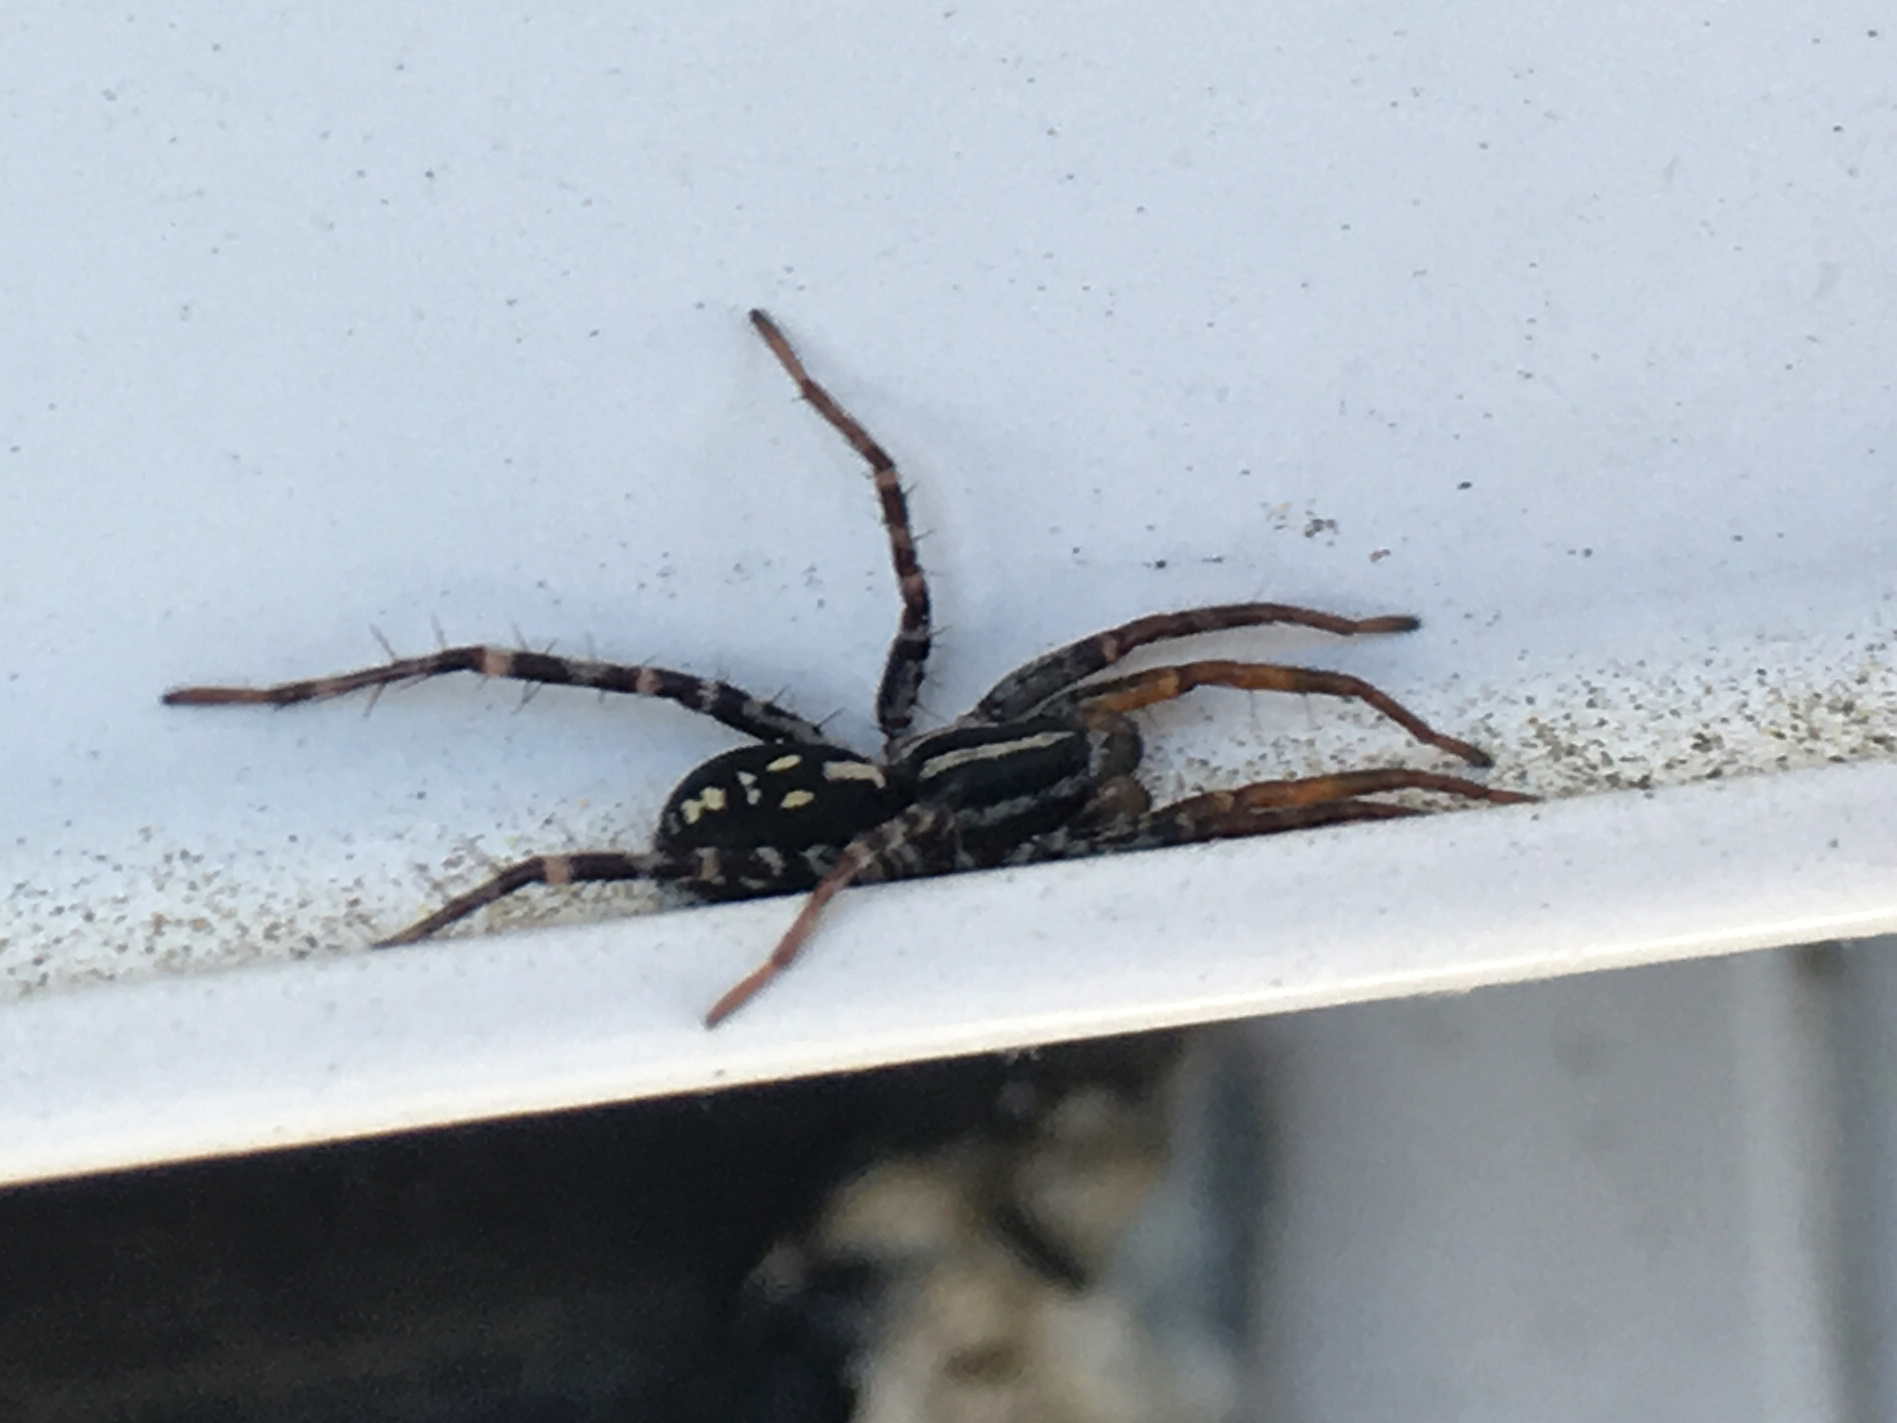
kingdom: Animalia
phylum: Arthropoda
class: Arachnida
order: Araneae
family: Corinnidae
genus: Nyssus
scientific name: Nyssus coloripes
